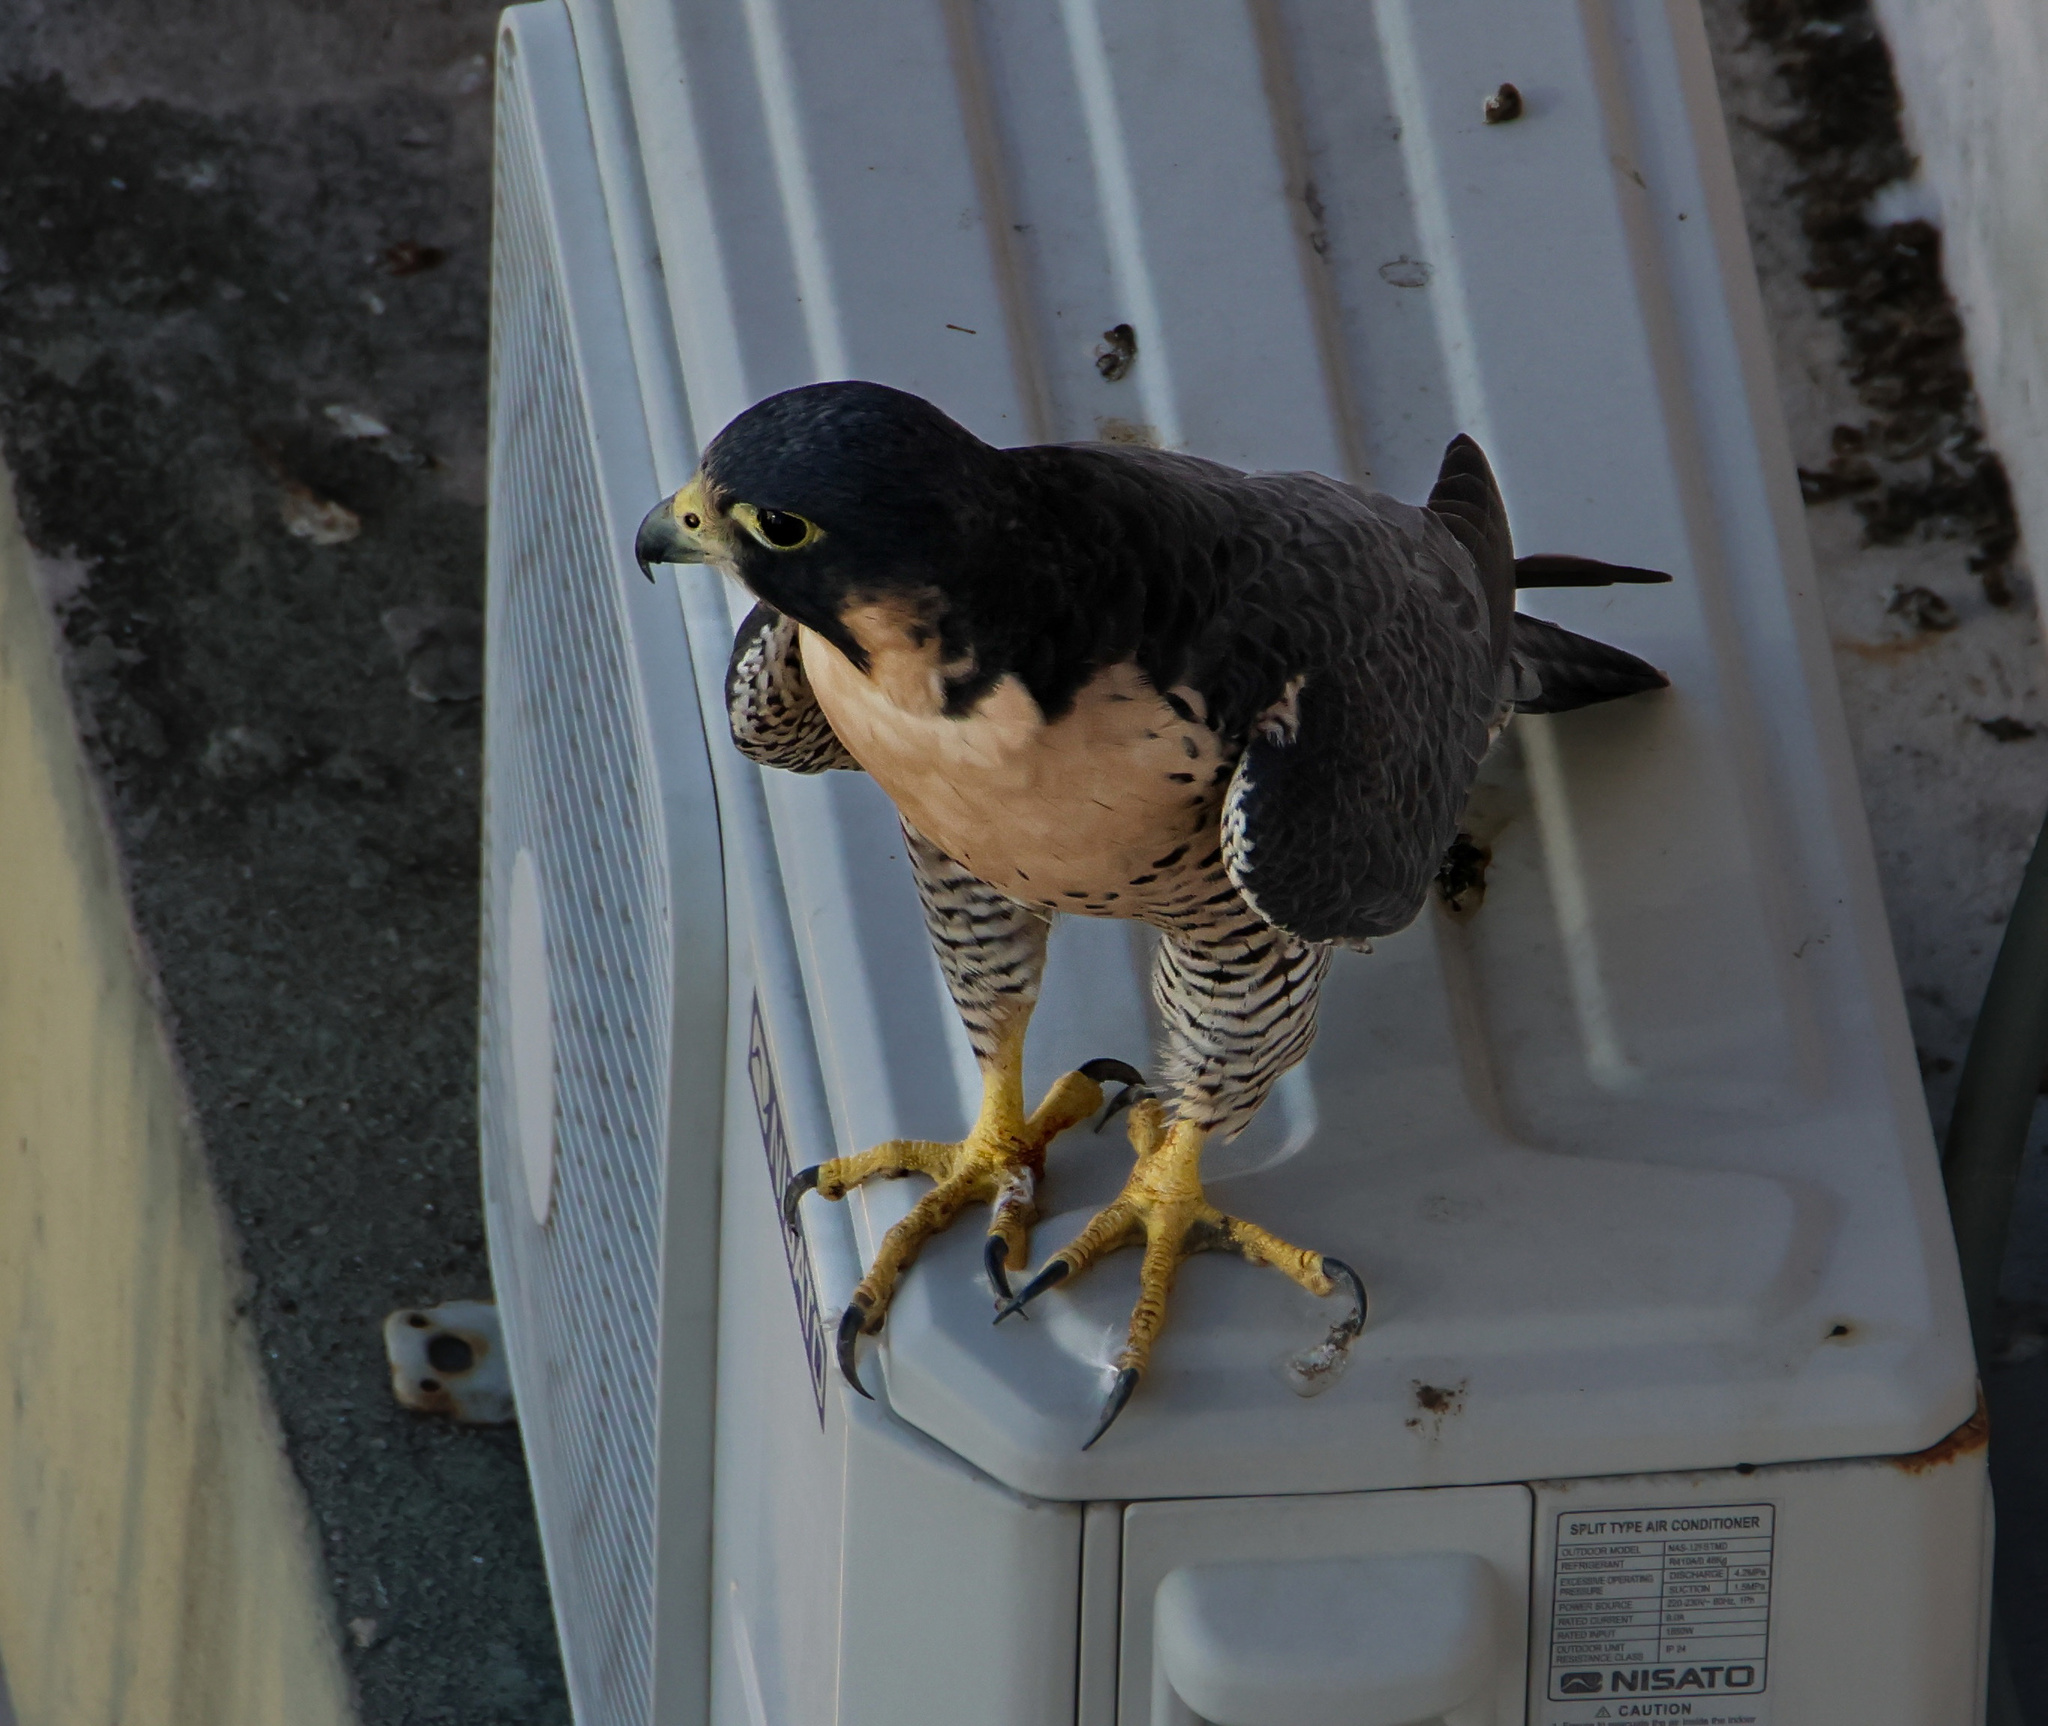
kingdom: Animalia
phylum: Chordata
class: Aves
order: Falconiformes
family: Falconidae
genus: Falco
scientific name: Falco peregrinus
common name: Peregrine falcon
